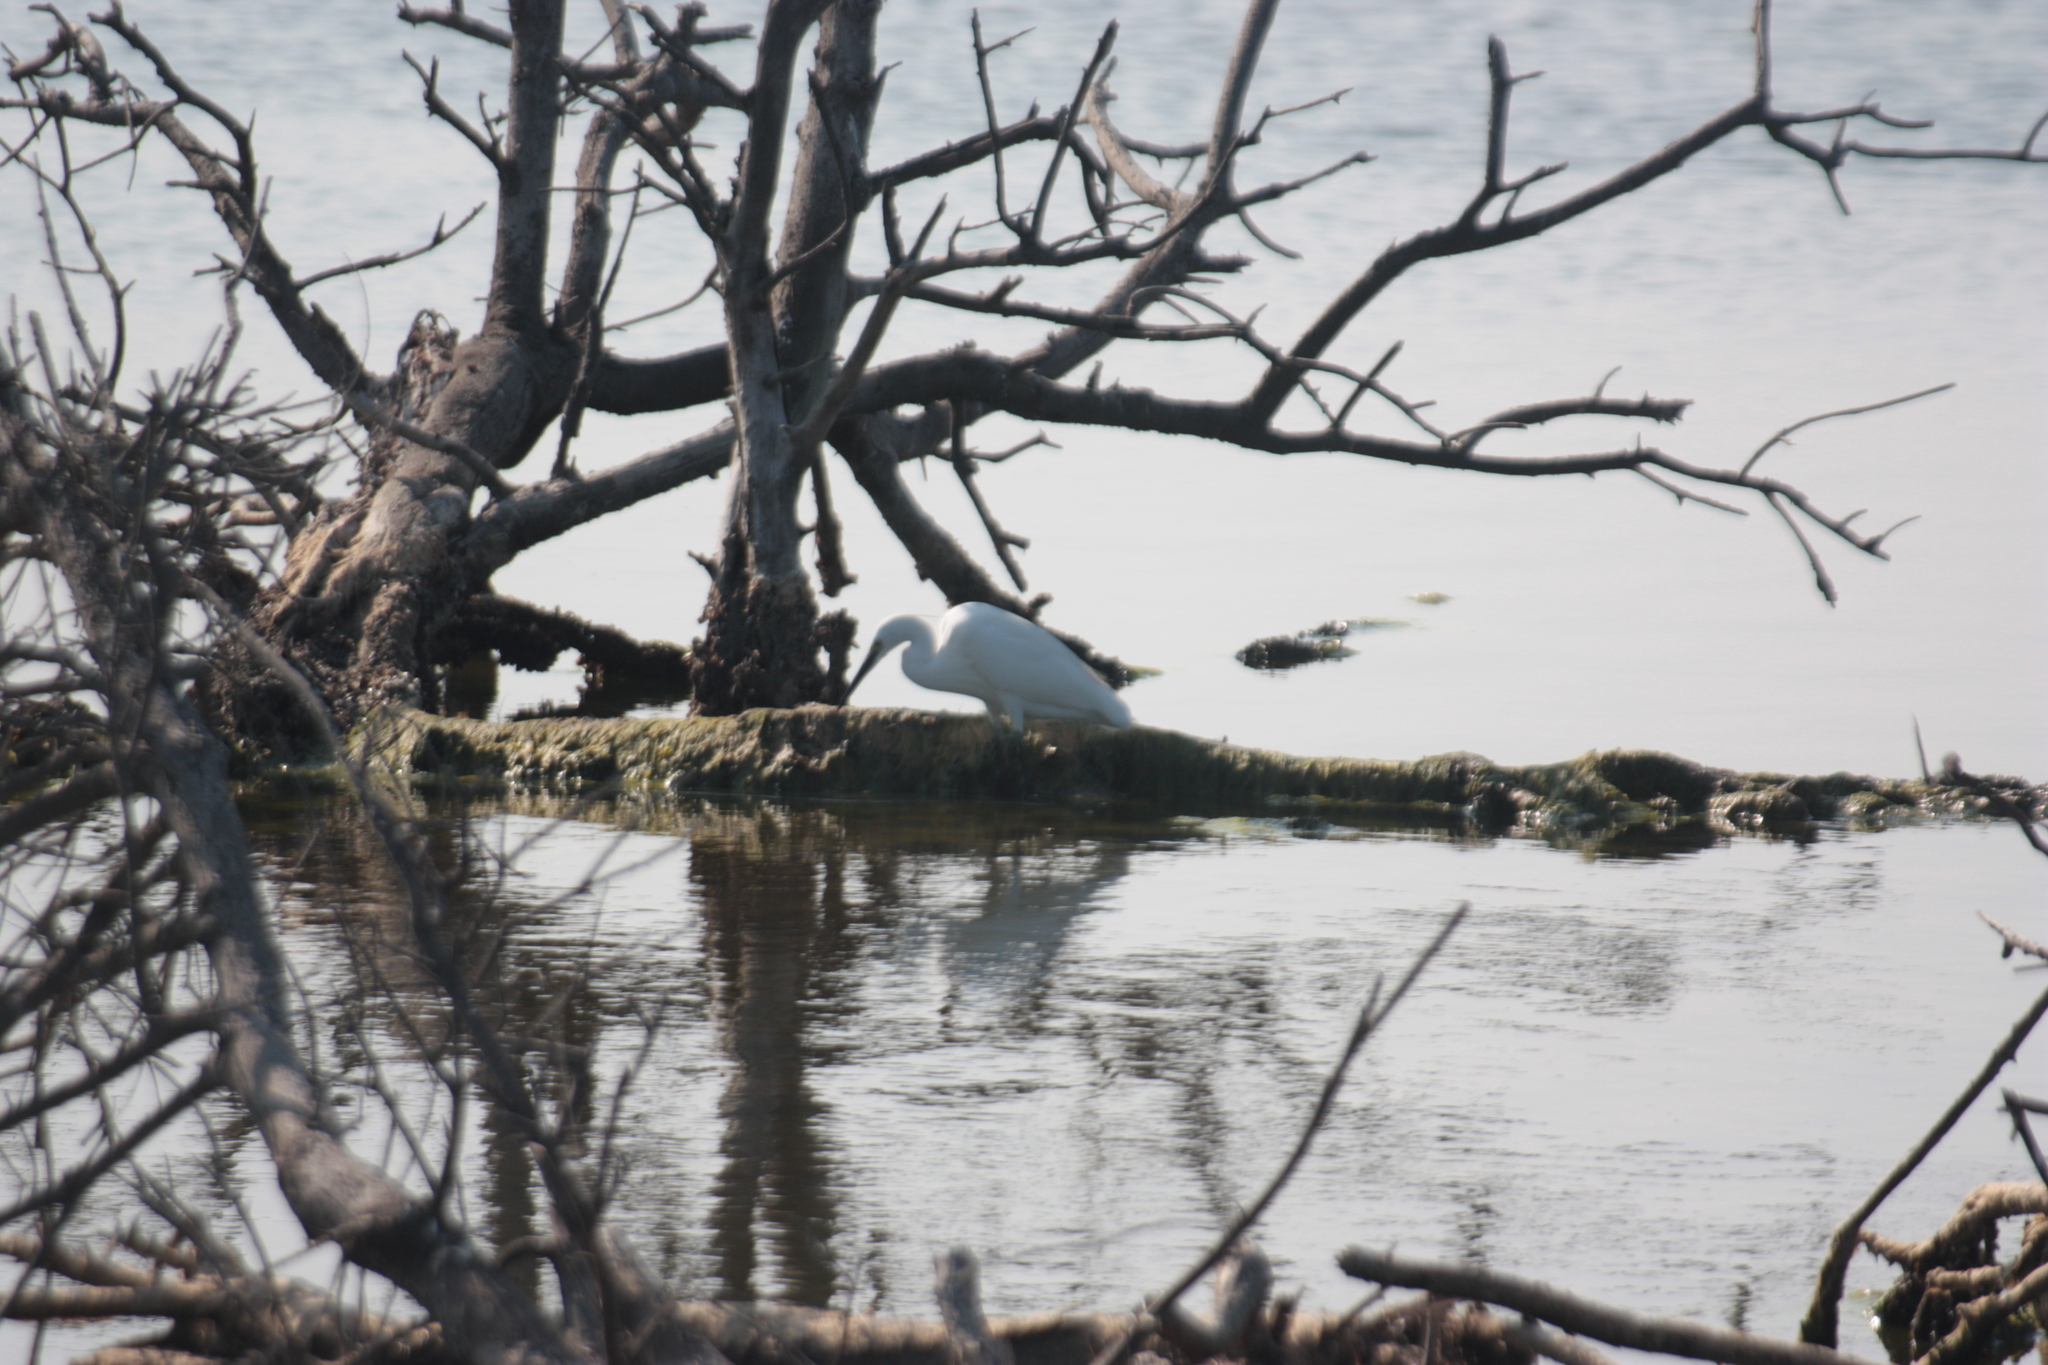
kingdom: Animalia
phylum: Chordata
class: Aves
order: Pelecaniformes
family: Ardeidae
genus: Egretta
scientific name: Egretta garzetta
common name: Little egret
